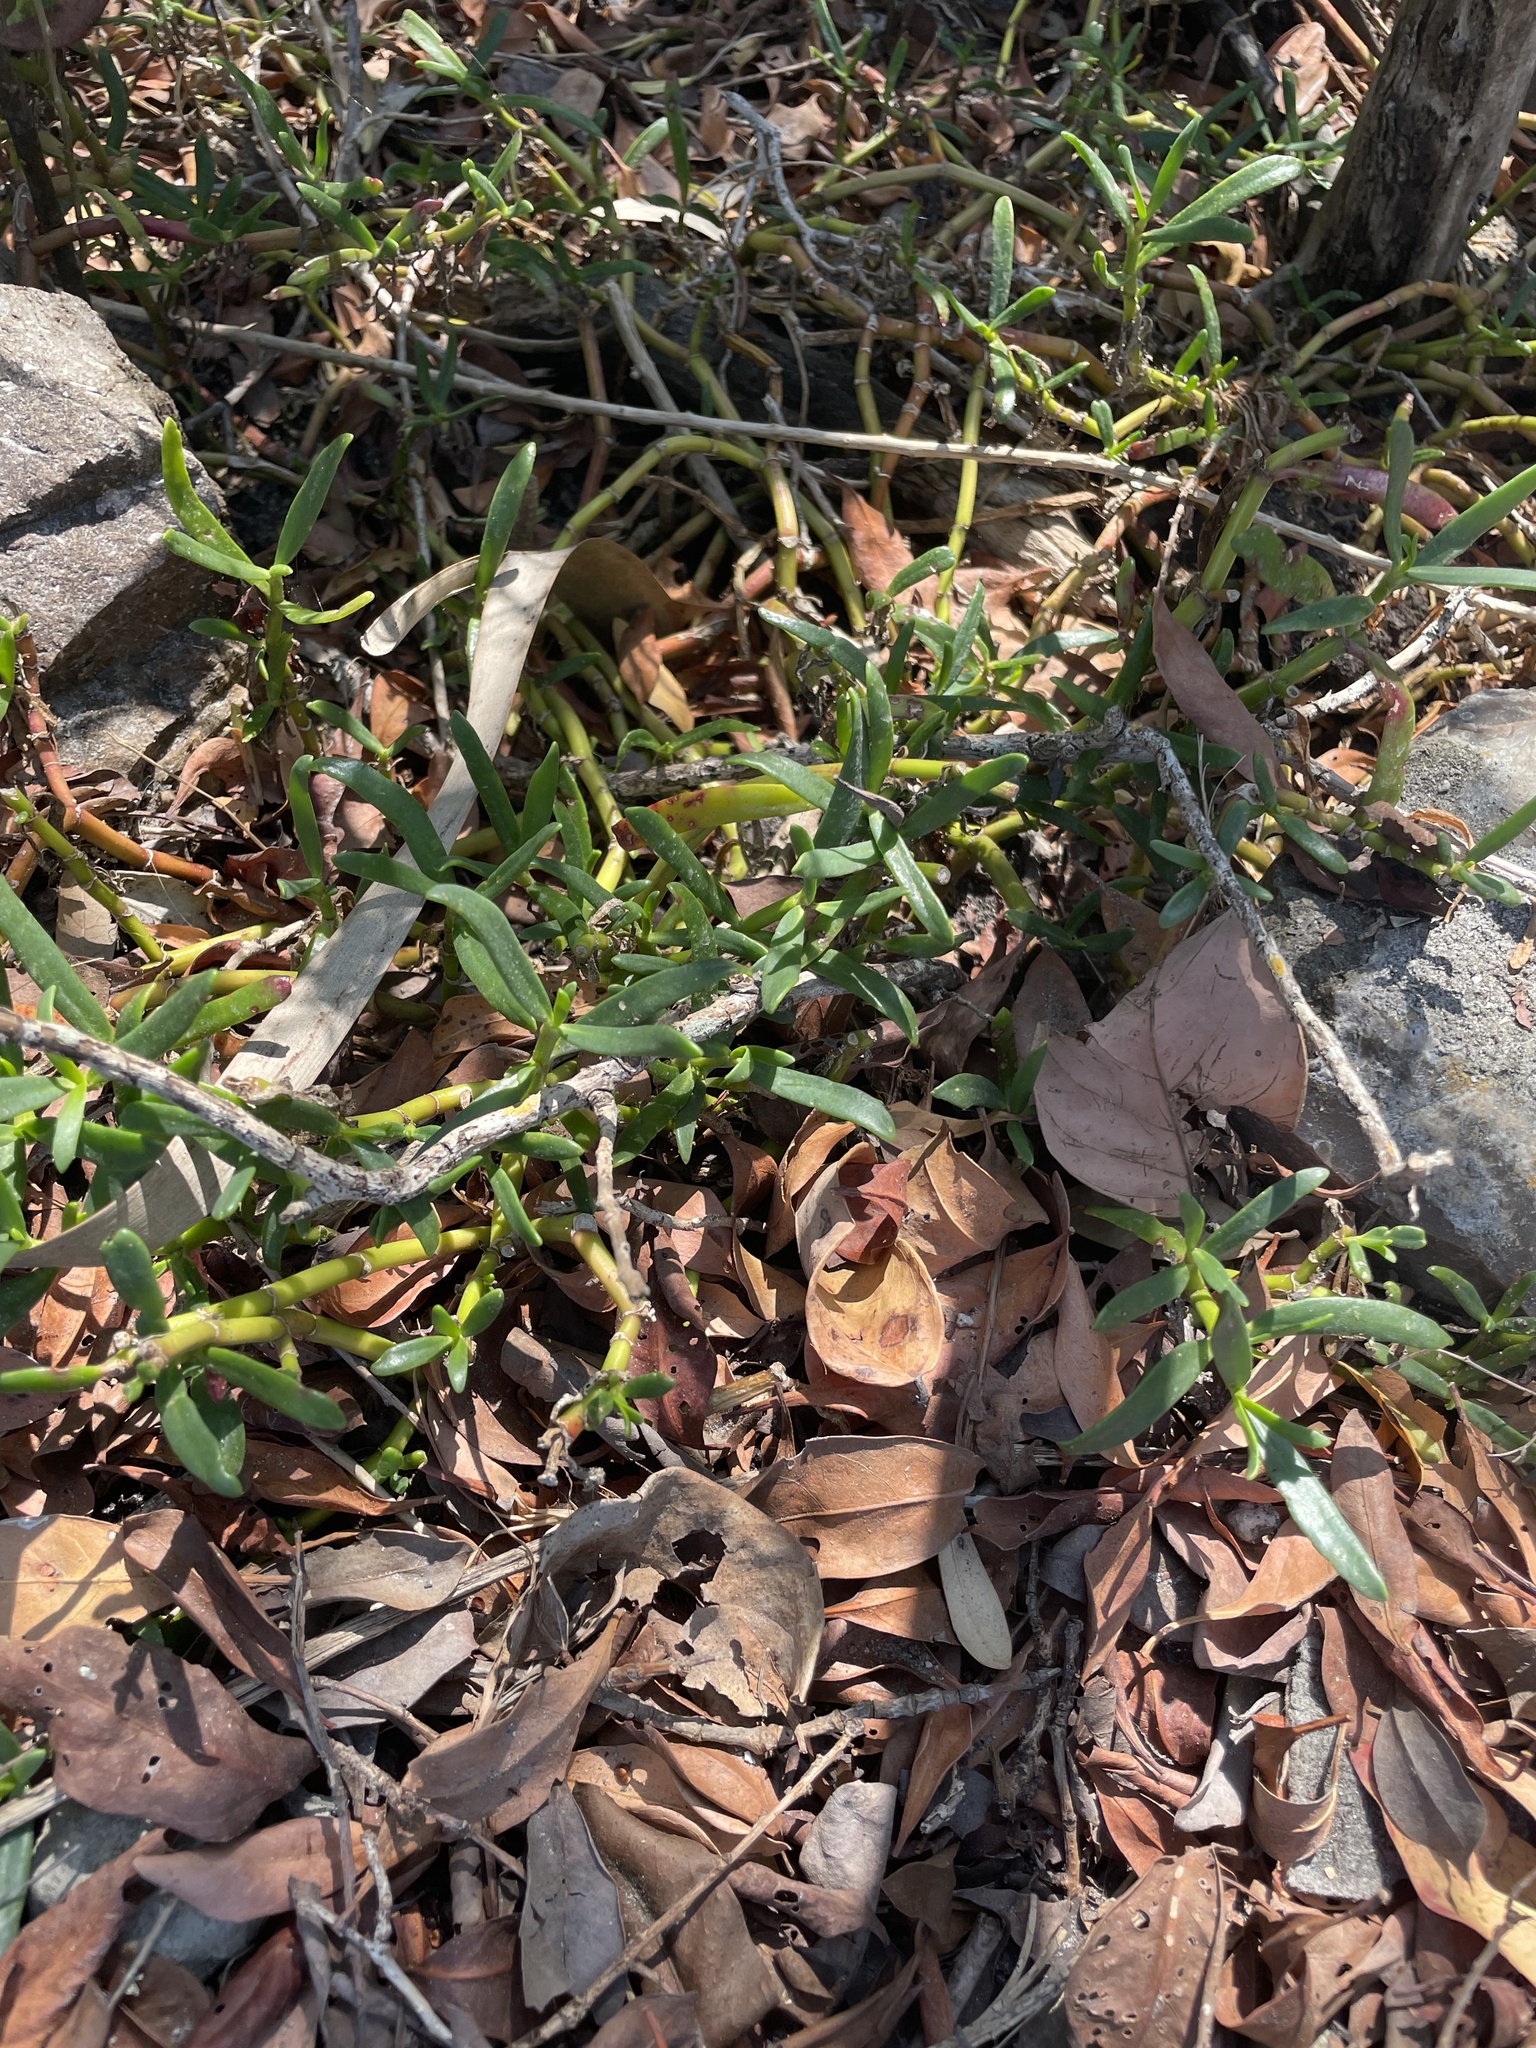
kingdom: Plantae
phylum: Tracheophyta
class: Magnoliopsida
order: Caryophyllales
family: Aizoaceae
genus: Sesuvium
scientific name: Sesuvium portulacastrum
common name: Sea-purslane
